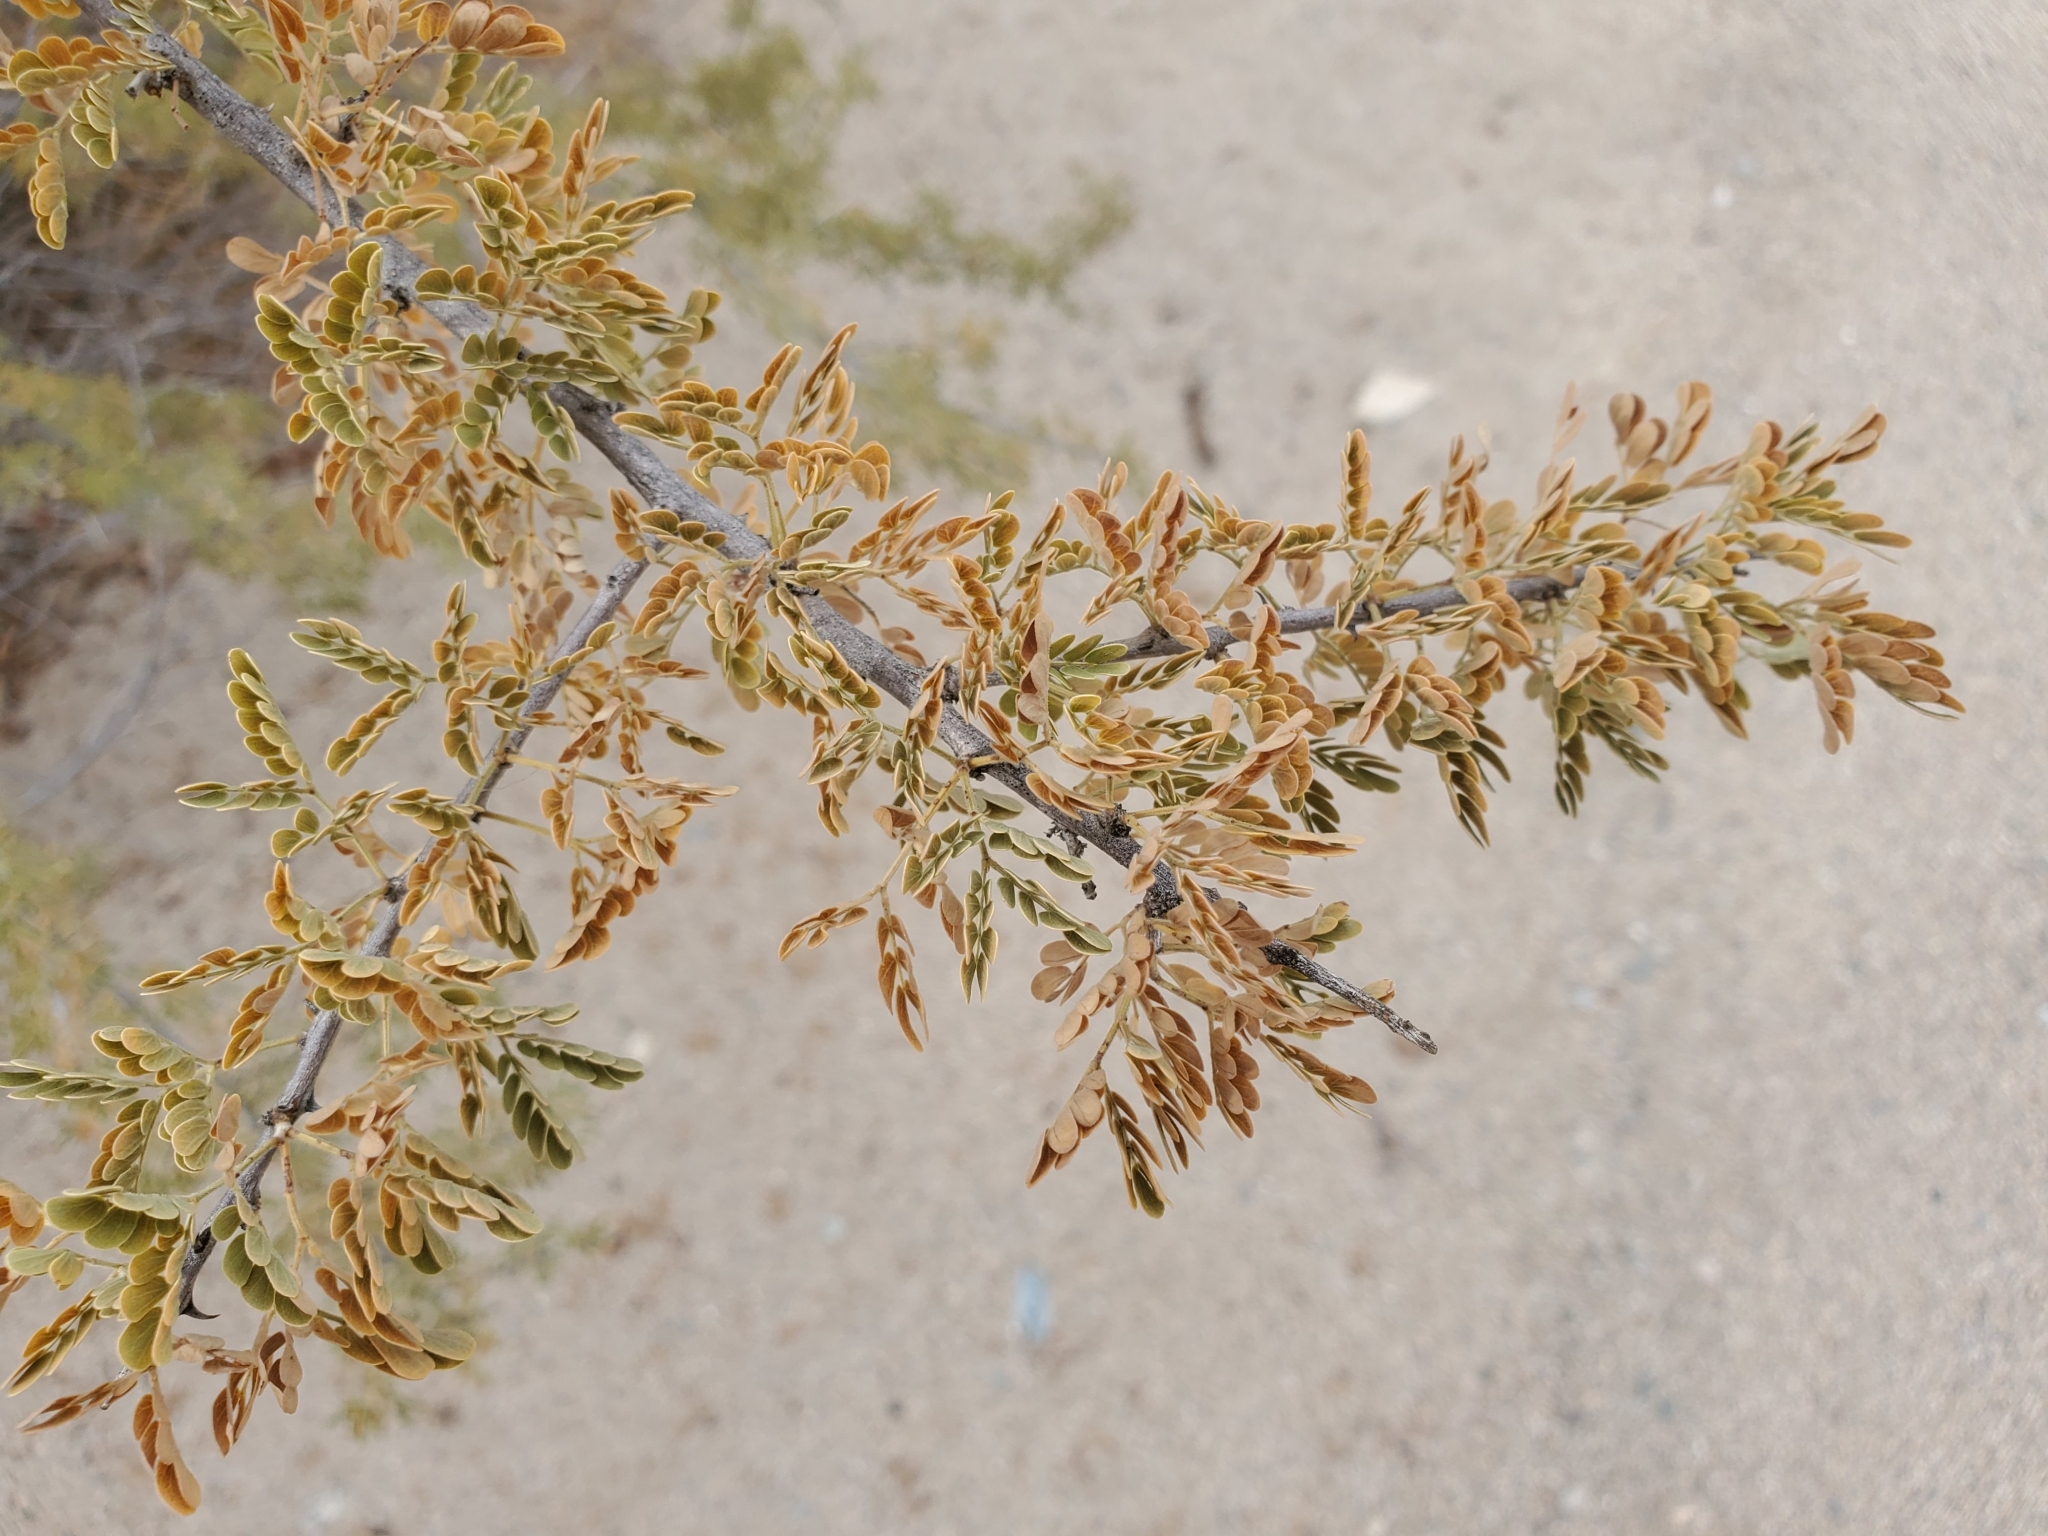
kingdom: Plantae
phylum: Tracheophyta
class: Magnoliopsida
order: Fabales
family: Fabaceae
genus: Senegalia
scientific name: Senegalia greggii
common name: Texas-mimosa
